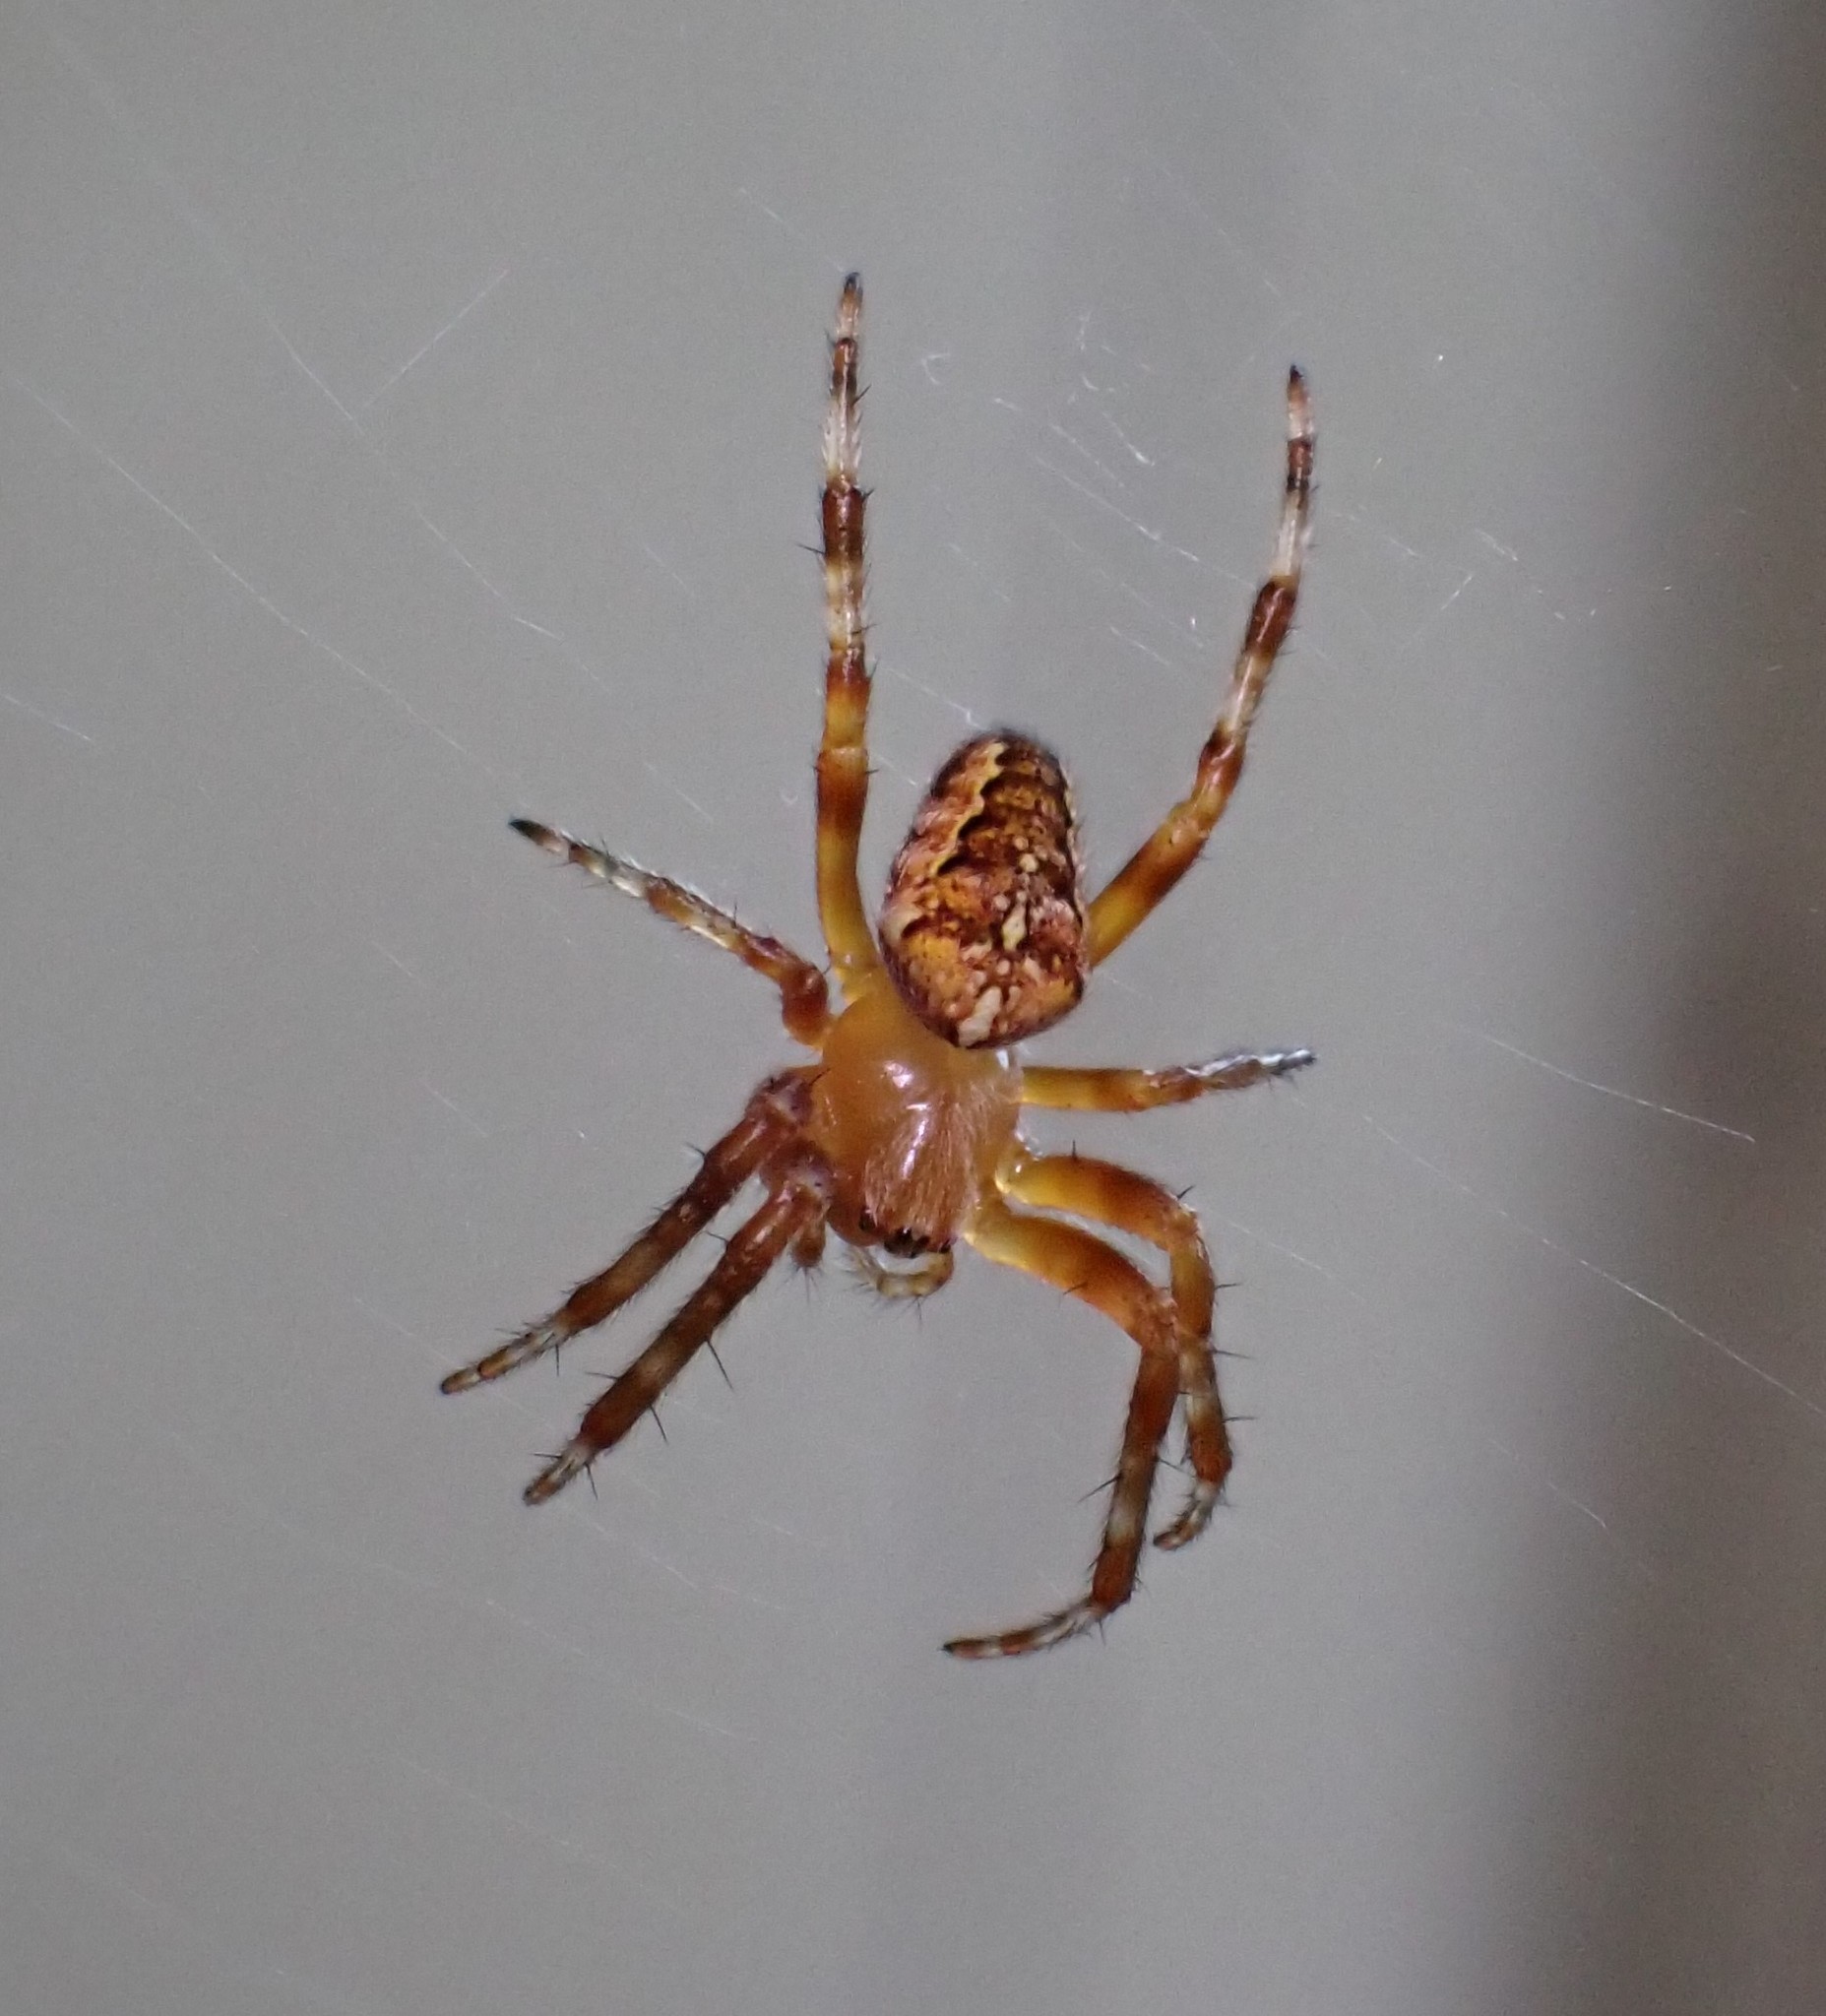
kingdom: Animalia
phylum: Arthropoda
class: Arachnida
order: Araneae
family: Araneidae
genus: Araneus
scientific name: Araneus diadematus
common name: Cross orbweaver
